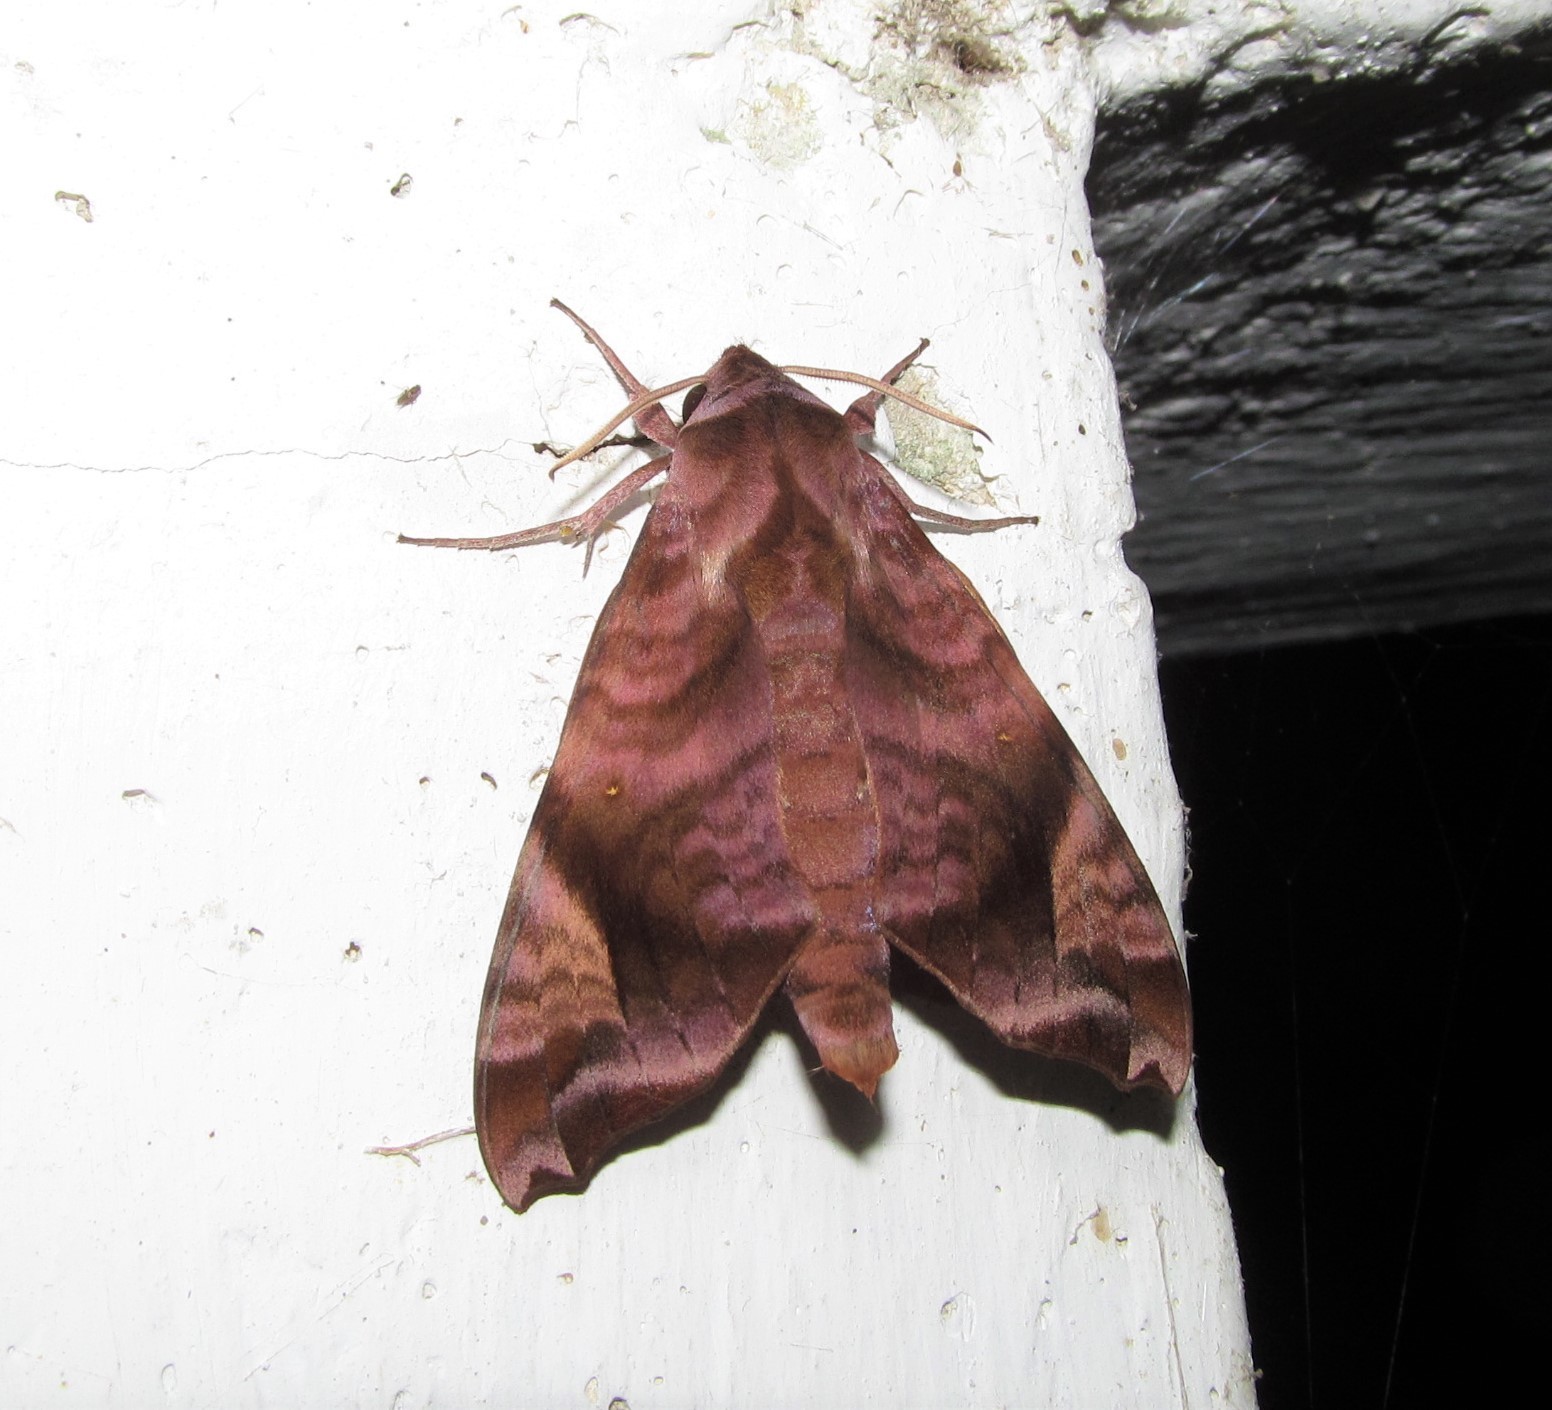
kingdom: Animalia
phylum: Arthropoda
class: Insecta
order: Lepidoptera
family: Sphingidae
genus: Acosmeryx
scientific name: Acosmeryx anceus
